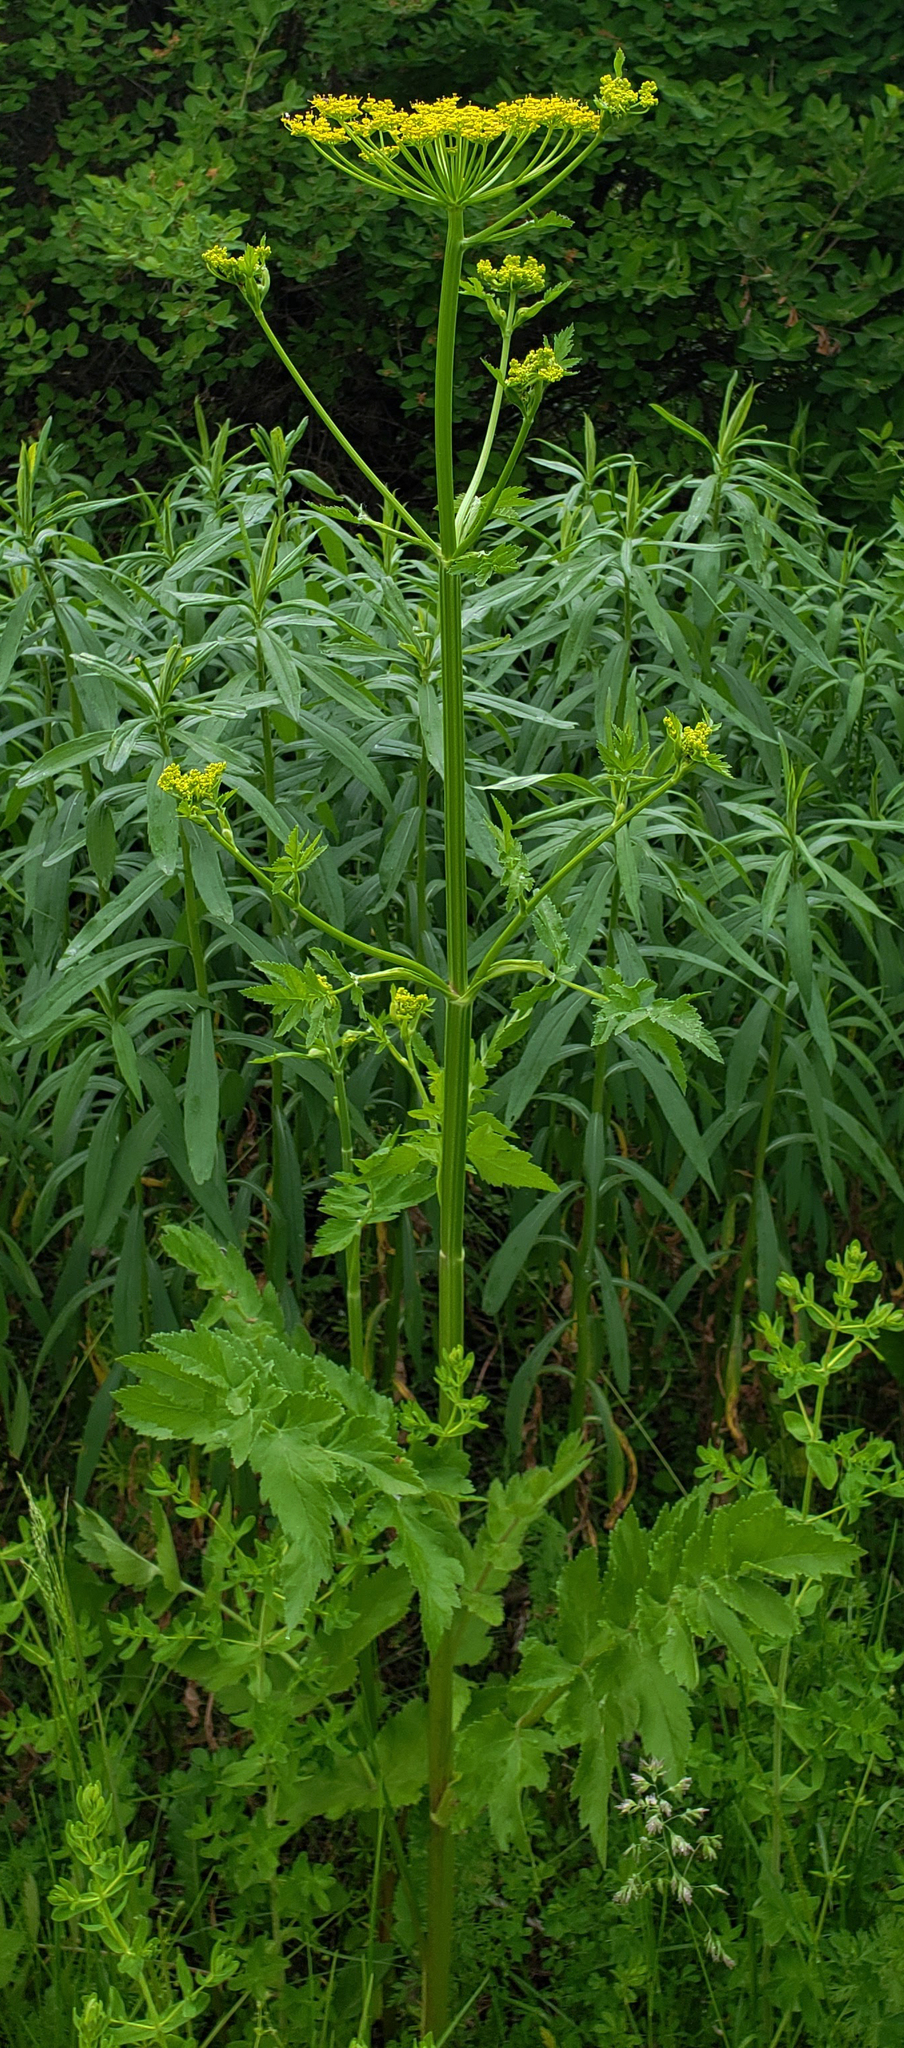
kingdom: Plantae
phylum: Tracheophyta
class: Magnoliopsida
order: Apiales
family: Apiaceae
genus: Pastinaca
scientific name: Pastinaca sativa
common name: Wild parsnip
